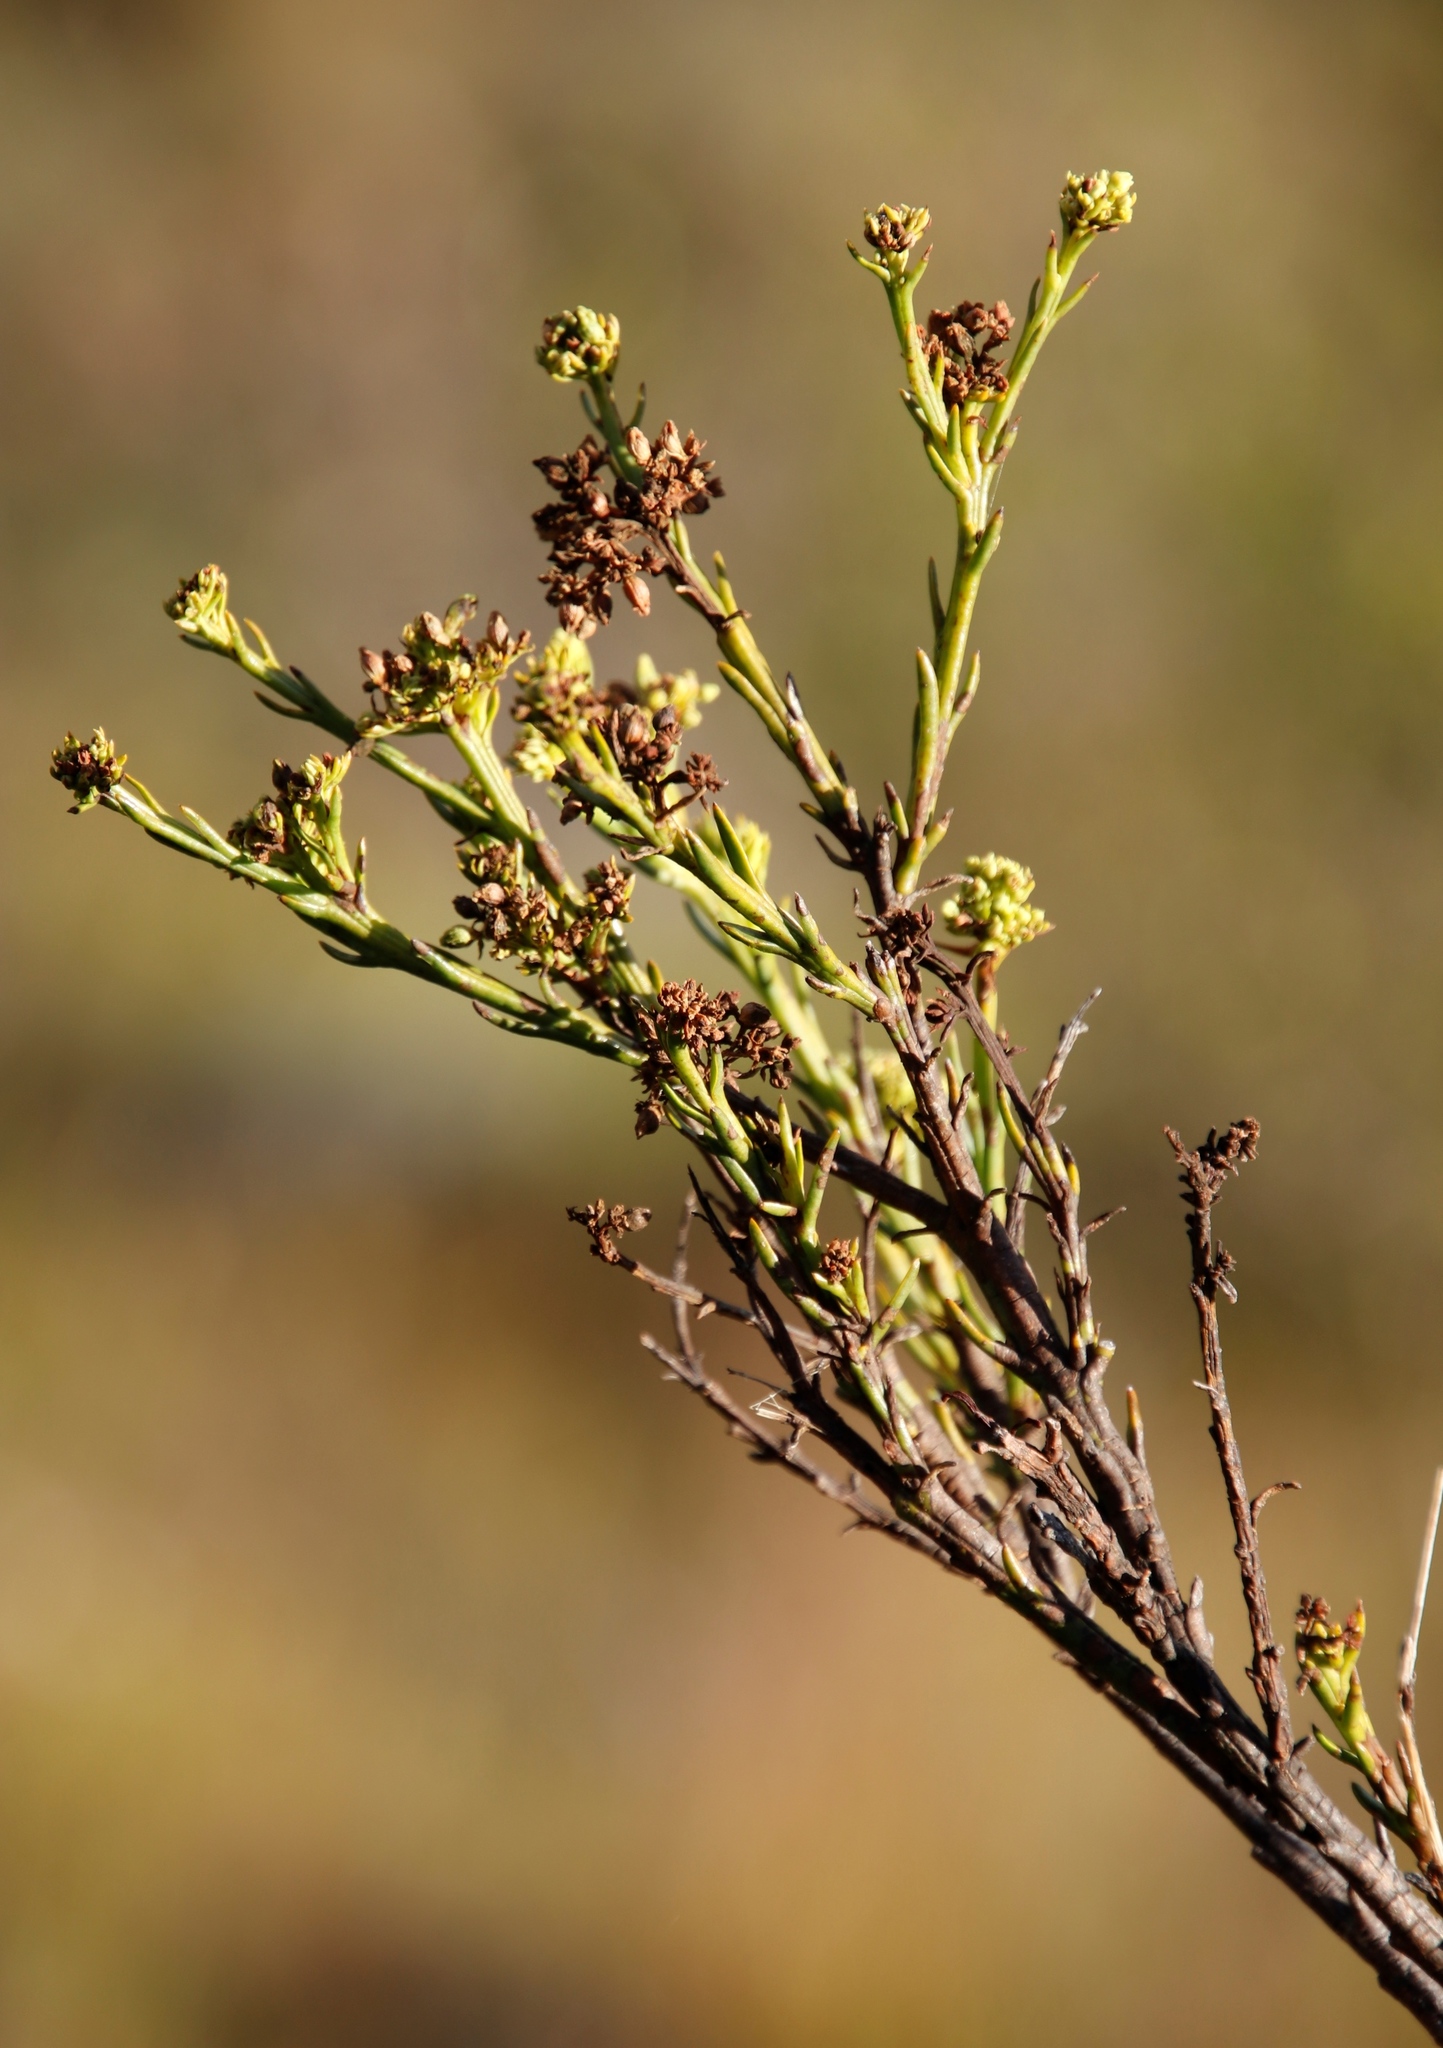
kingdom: Plantae
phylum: Tracheophyta
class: Magnoliopsida
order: Santalales
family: Thesiaceae
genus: Thesium
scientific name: Thesium strictum
